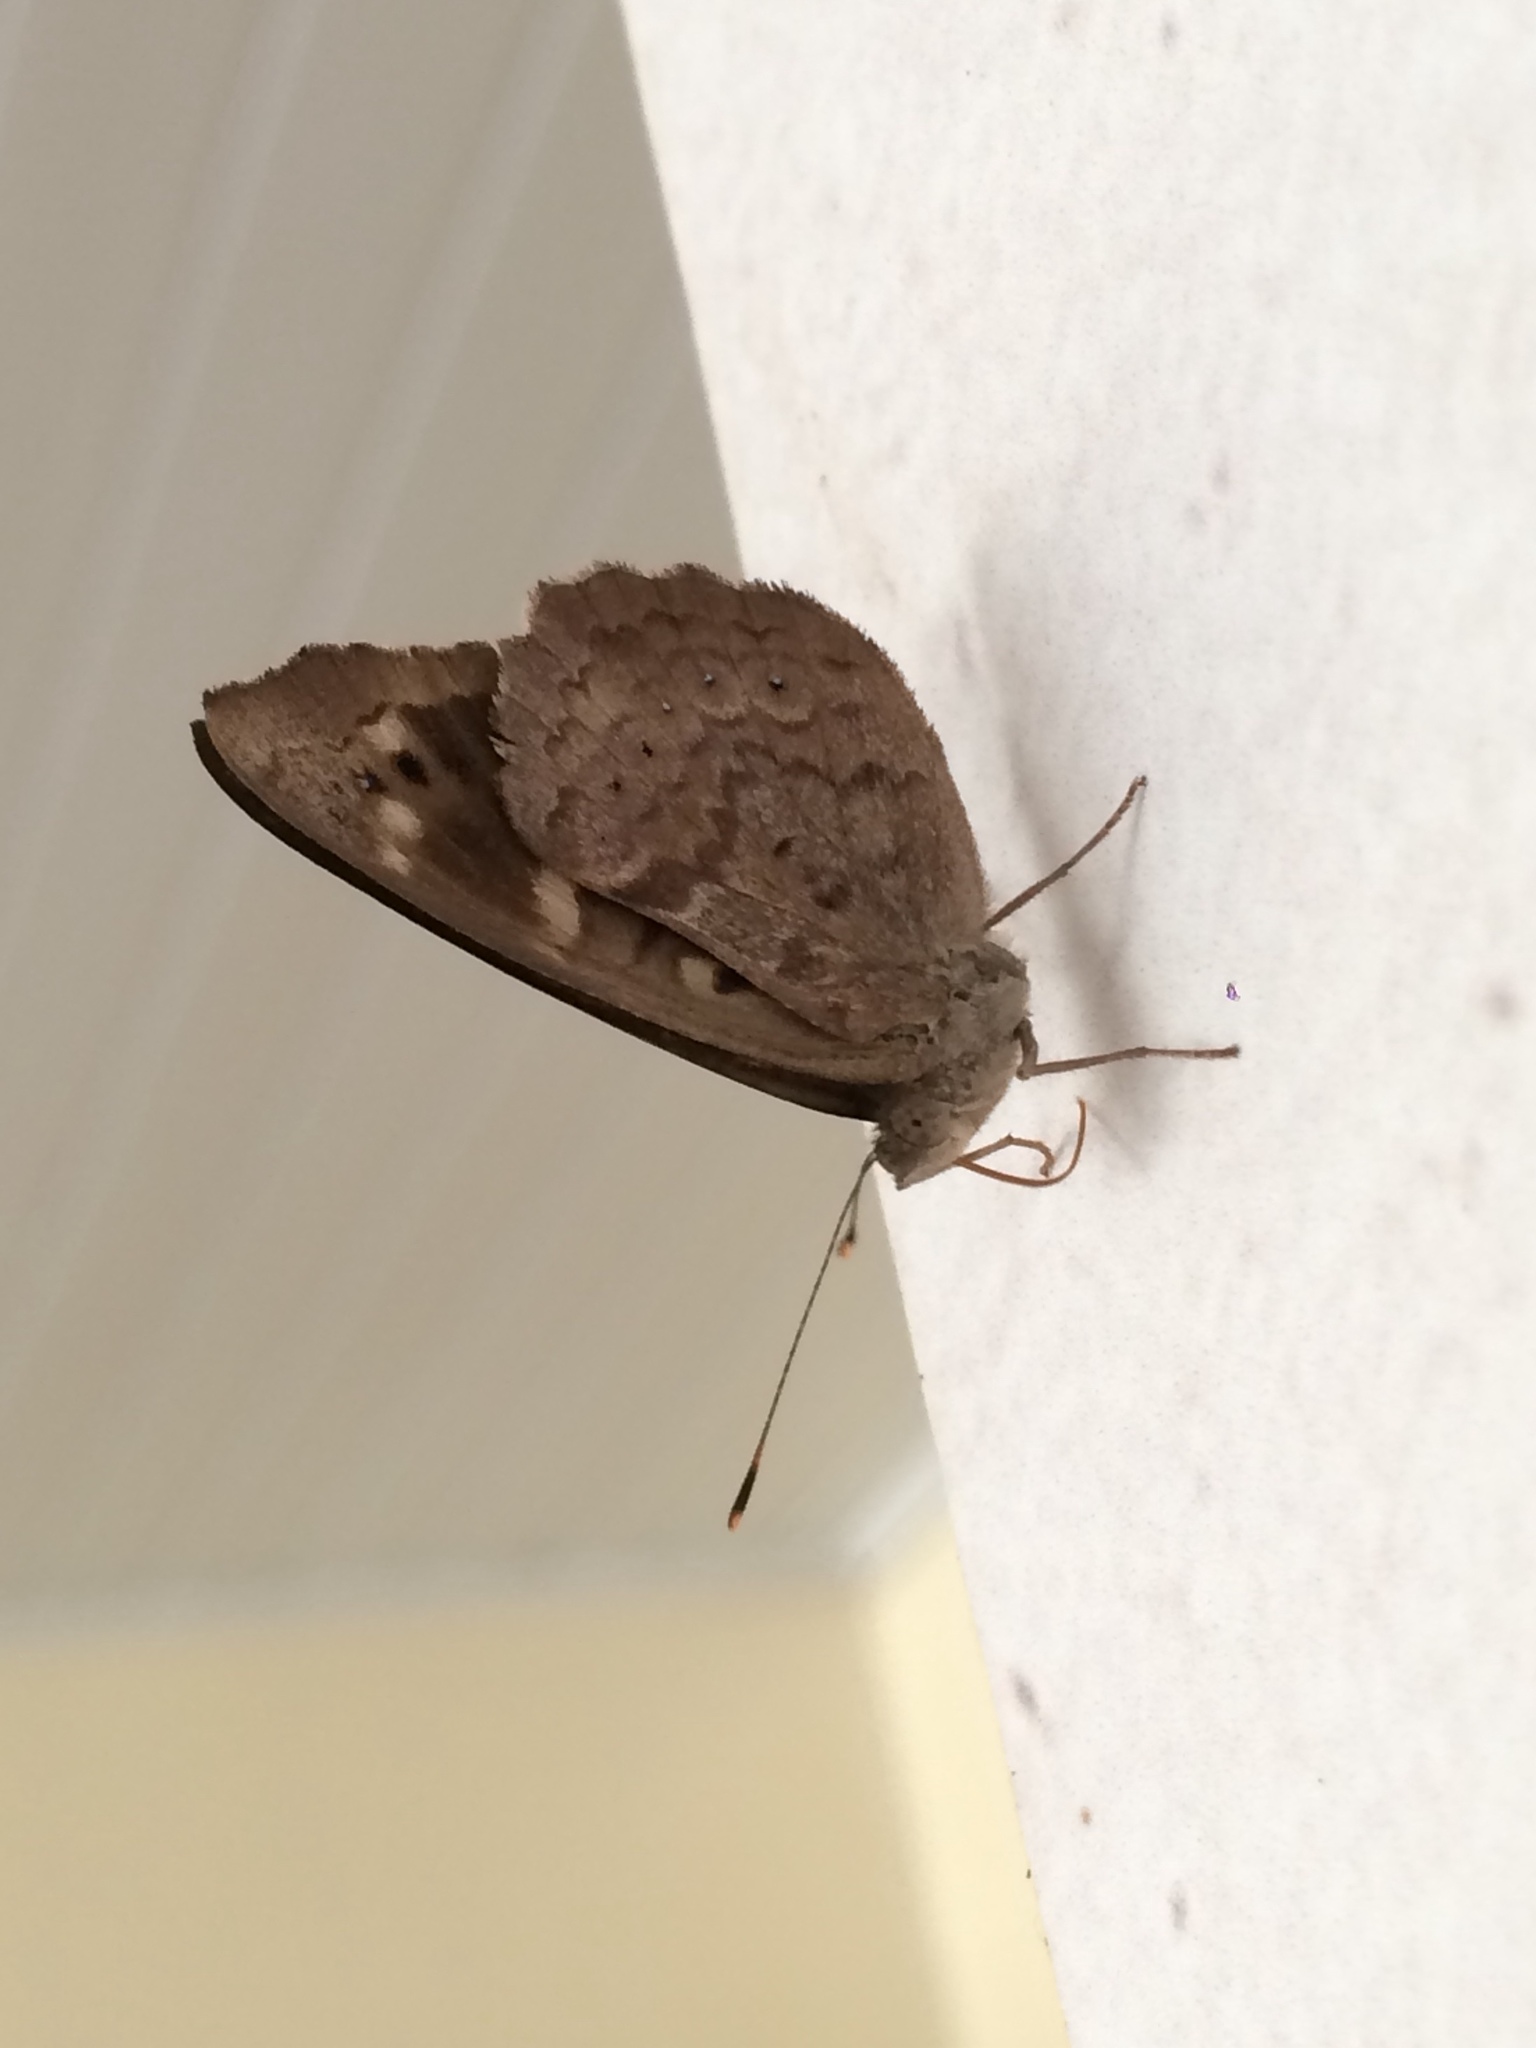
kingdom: Animalia
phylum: Arthropoda
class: Insecta
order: Lepidoptera
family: Nymphalidae
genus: Eunica
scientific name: Eunica tatila
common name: Florida purplewing
